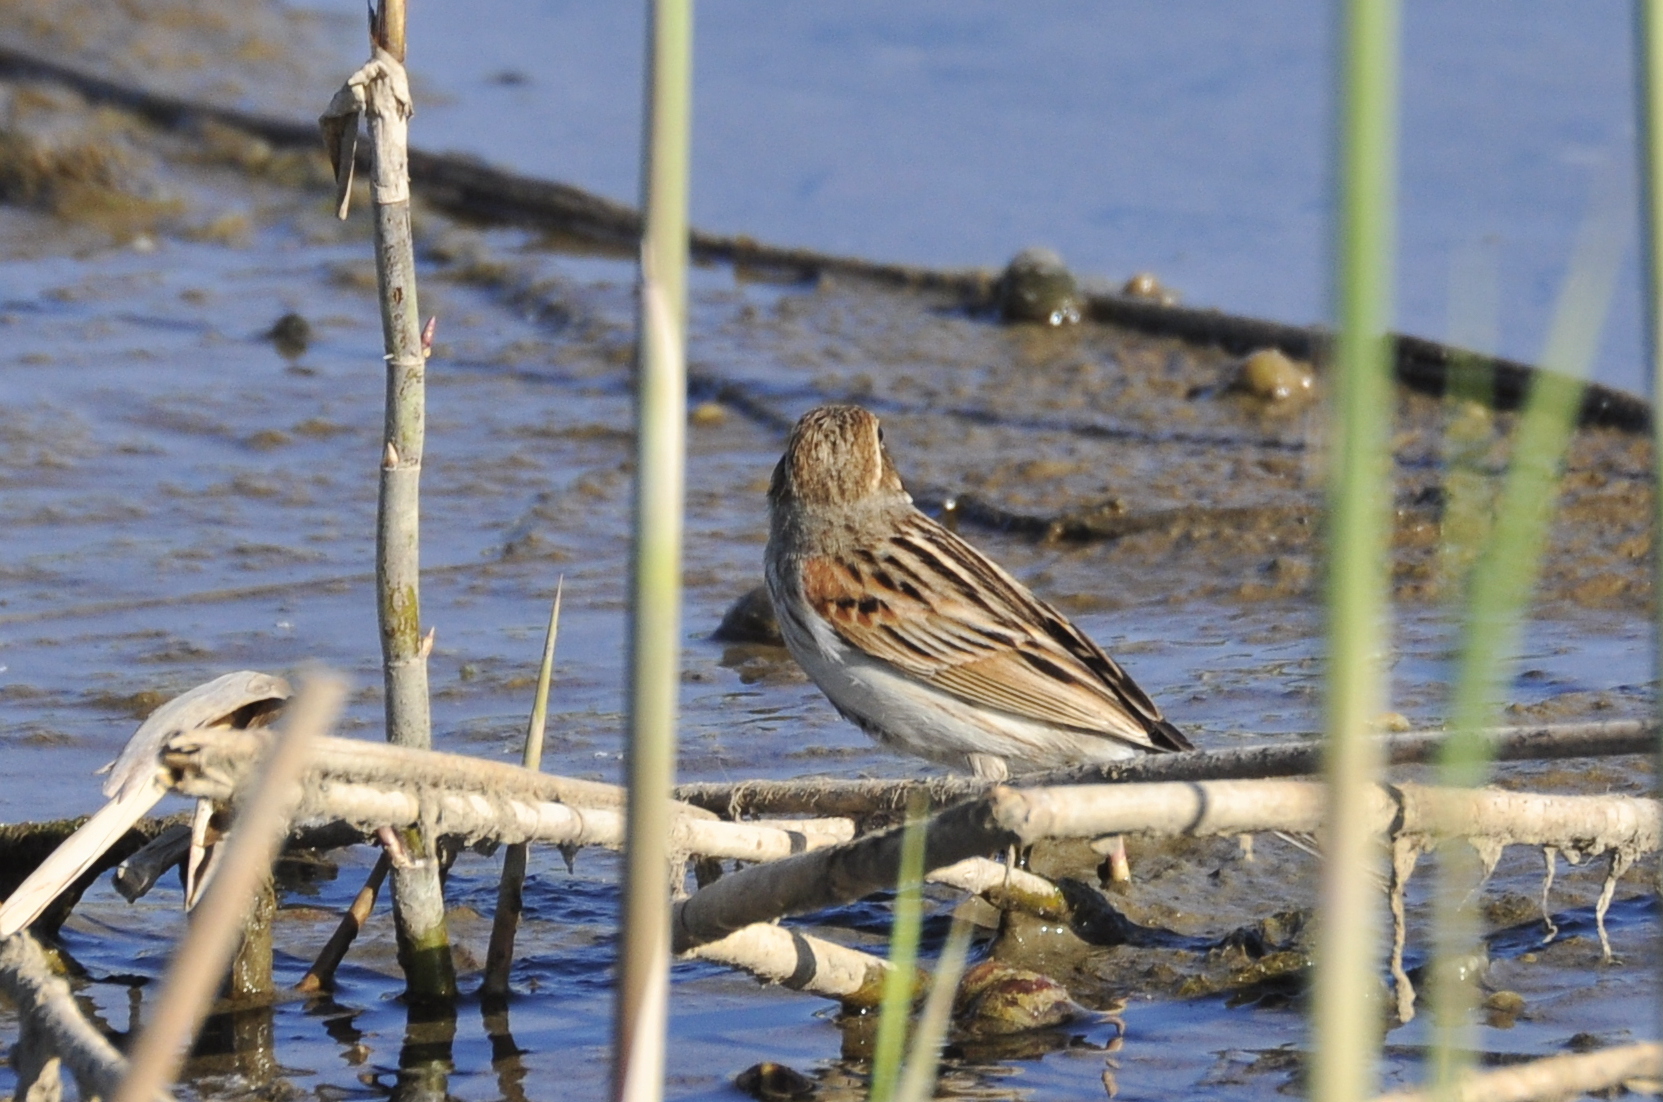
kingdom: Animalia
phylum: Chordata
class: Aves
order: Passeriformes
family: Emberizidae
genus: Emberiza
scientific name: Emberiza schoeniclus
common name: Reed bunting
